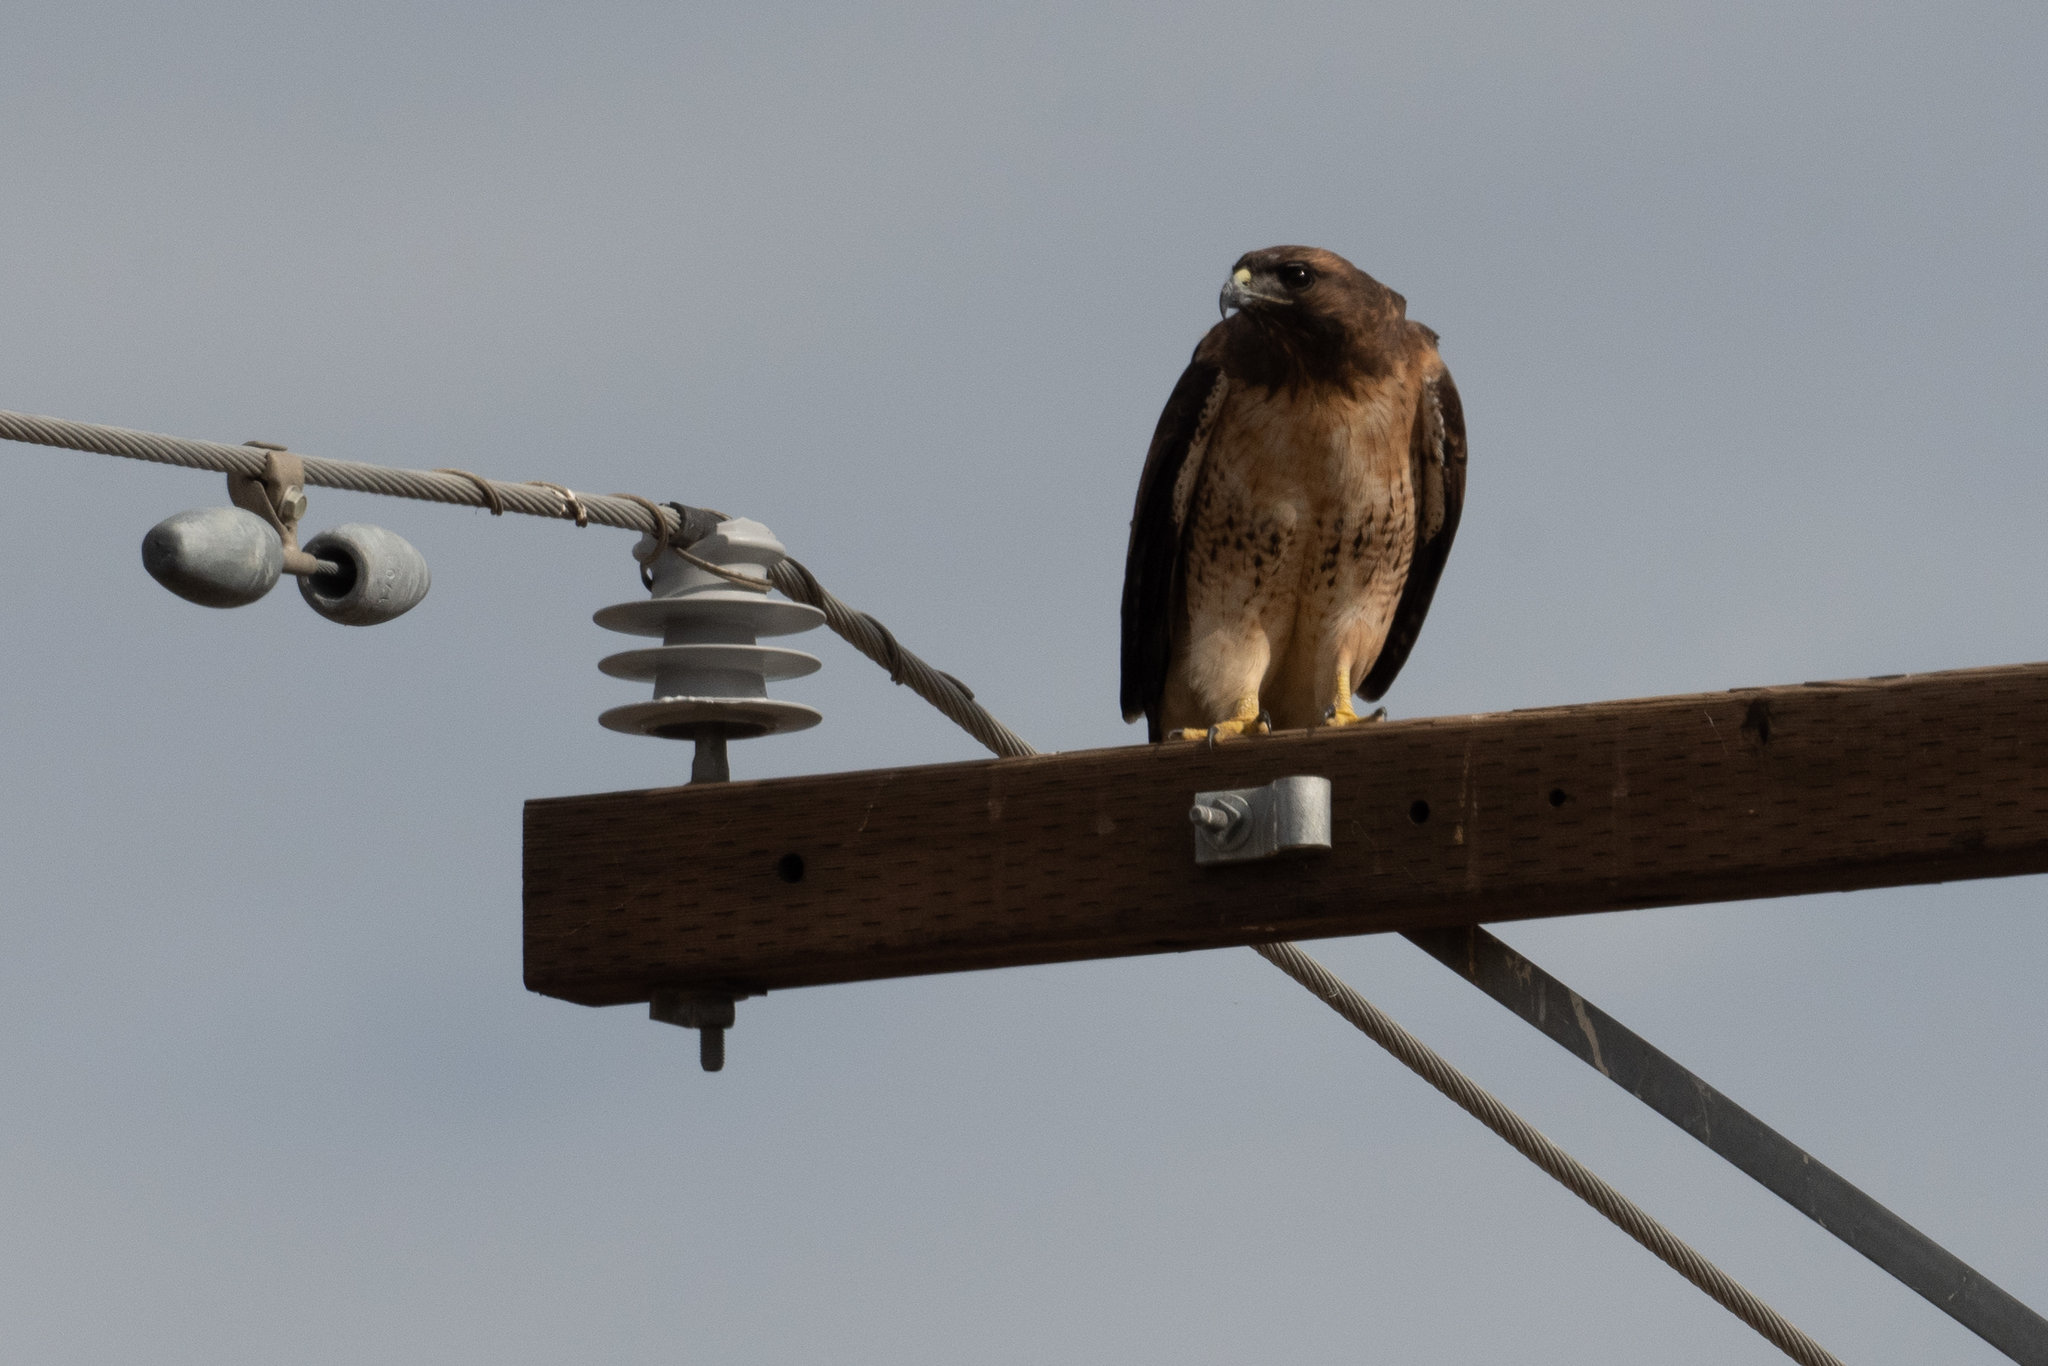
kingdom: Animalia
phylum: Chordata
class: Aves
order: Accipitriformes
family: Accipitridae
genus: Buteo
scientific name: Buteo jamaicensis
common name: Red-tailed hawk
